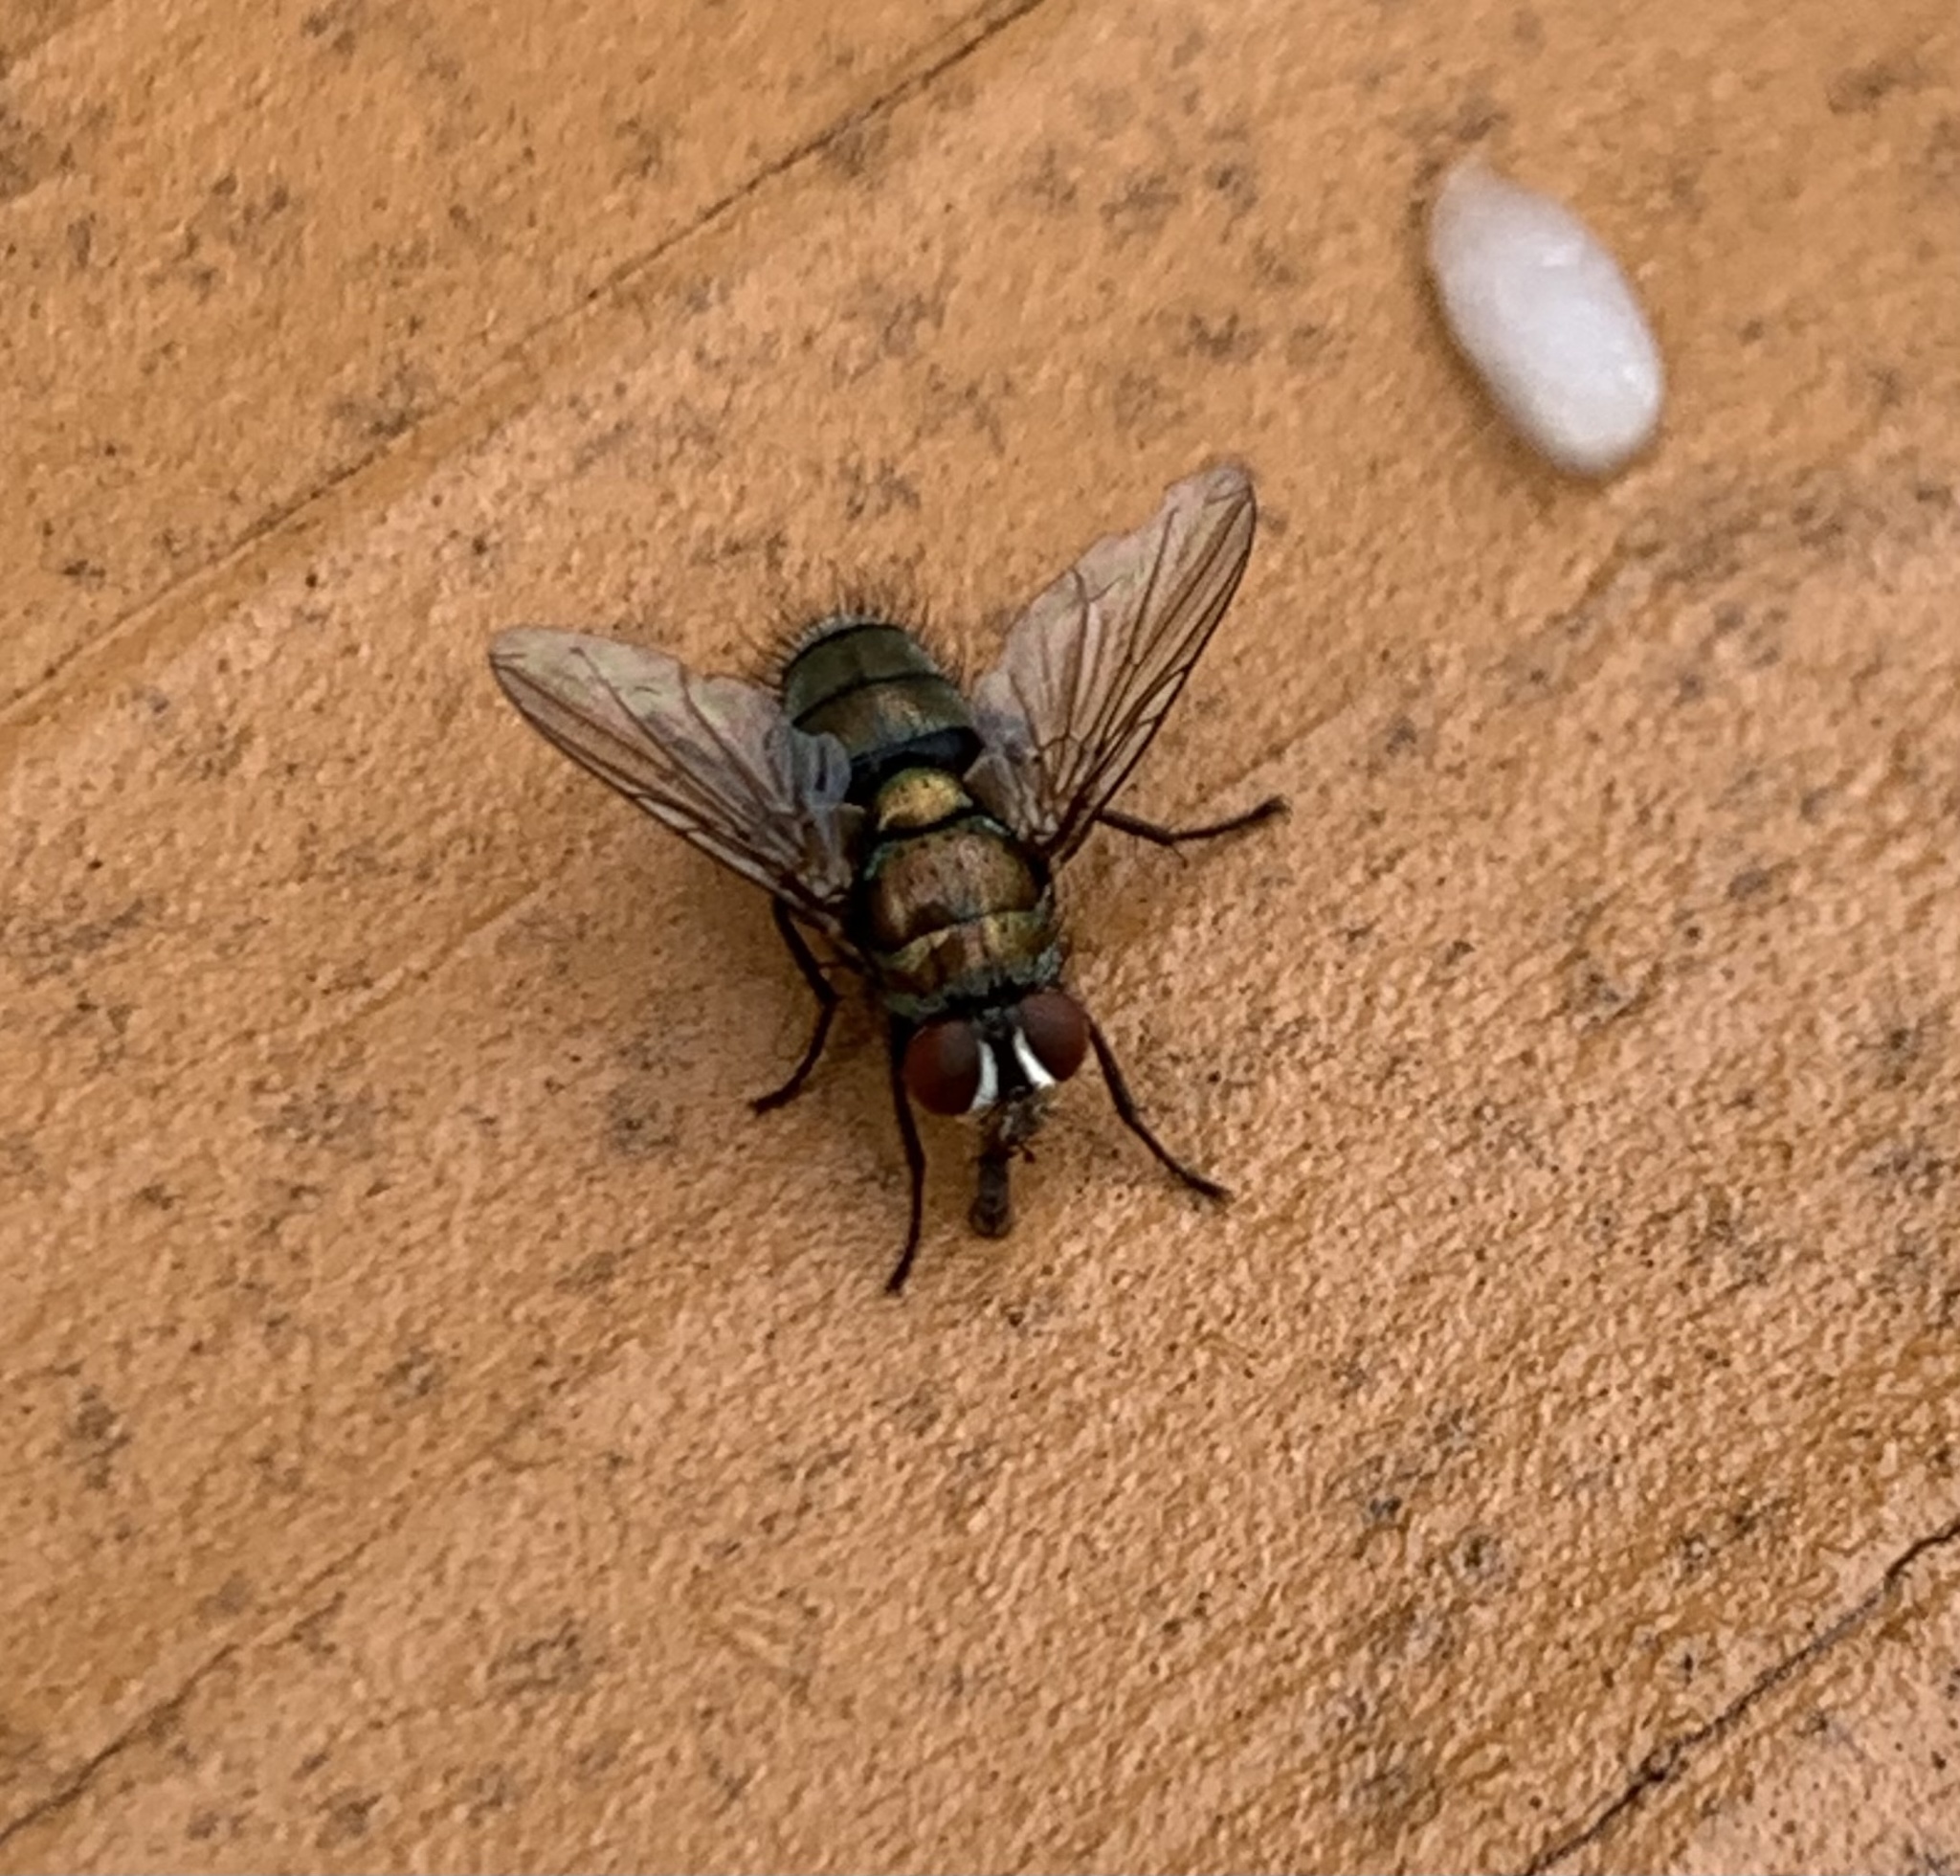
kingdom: Animalia
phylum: Arthropoda
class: Insecta
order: Diptera
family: Calliphoridae
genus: Lucilia
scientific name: Lucilia cuprina
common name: Sheep blow fly
